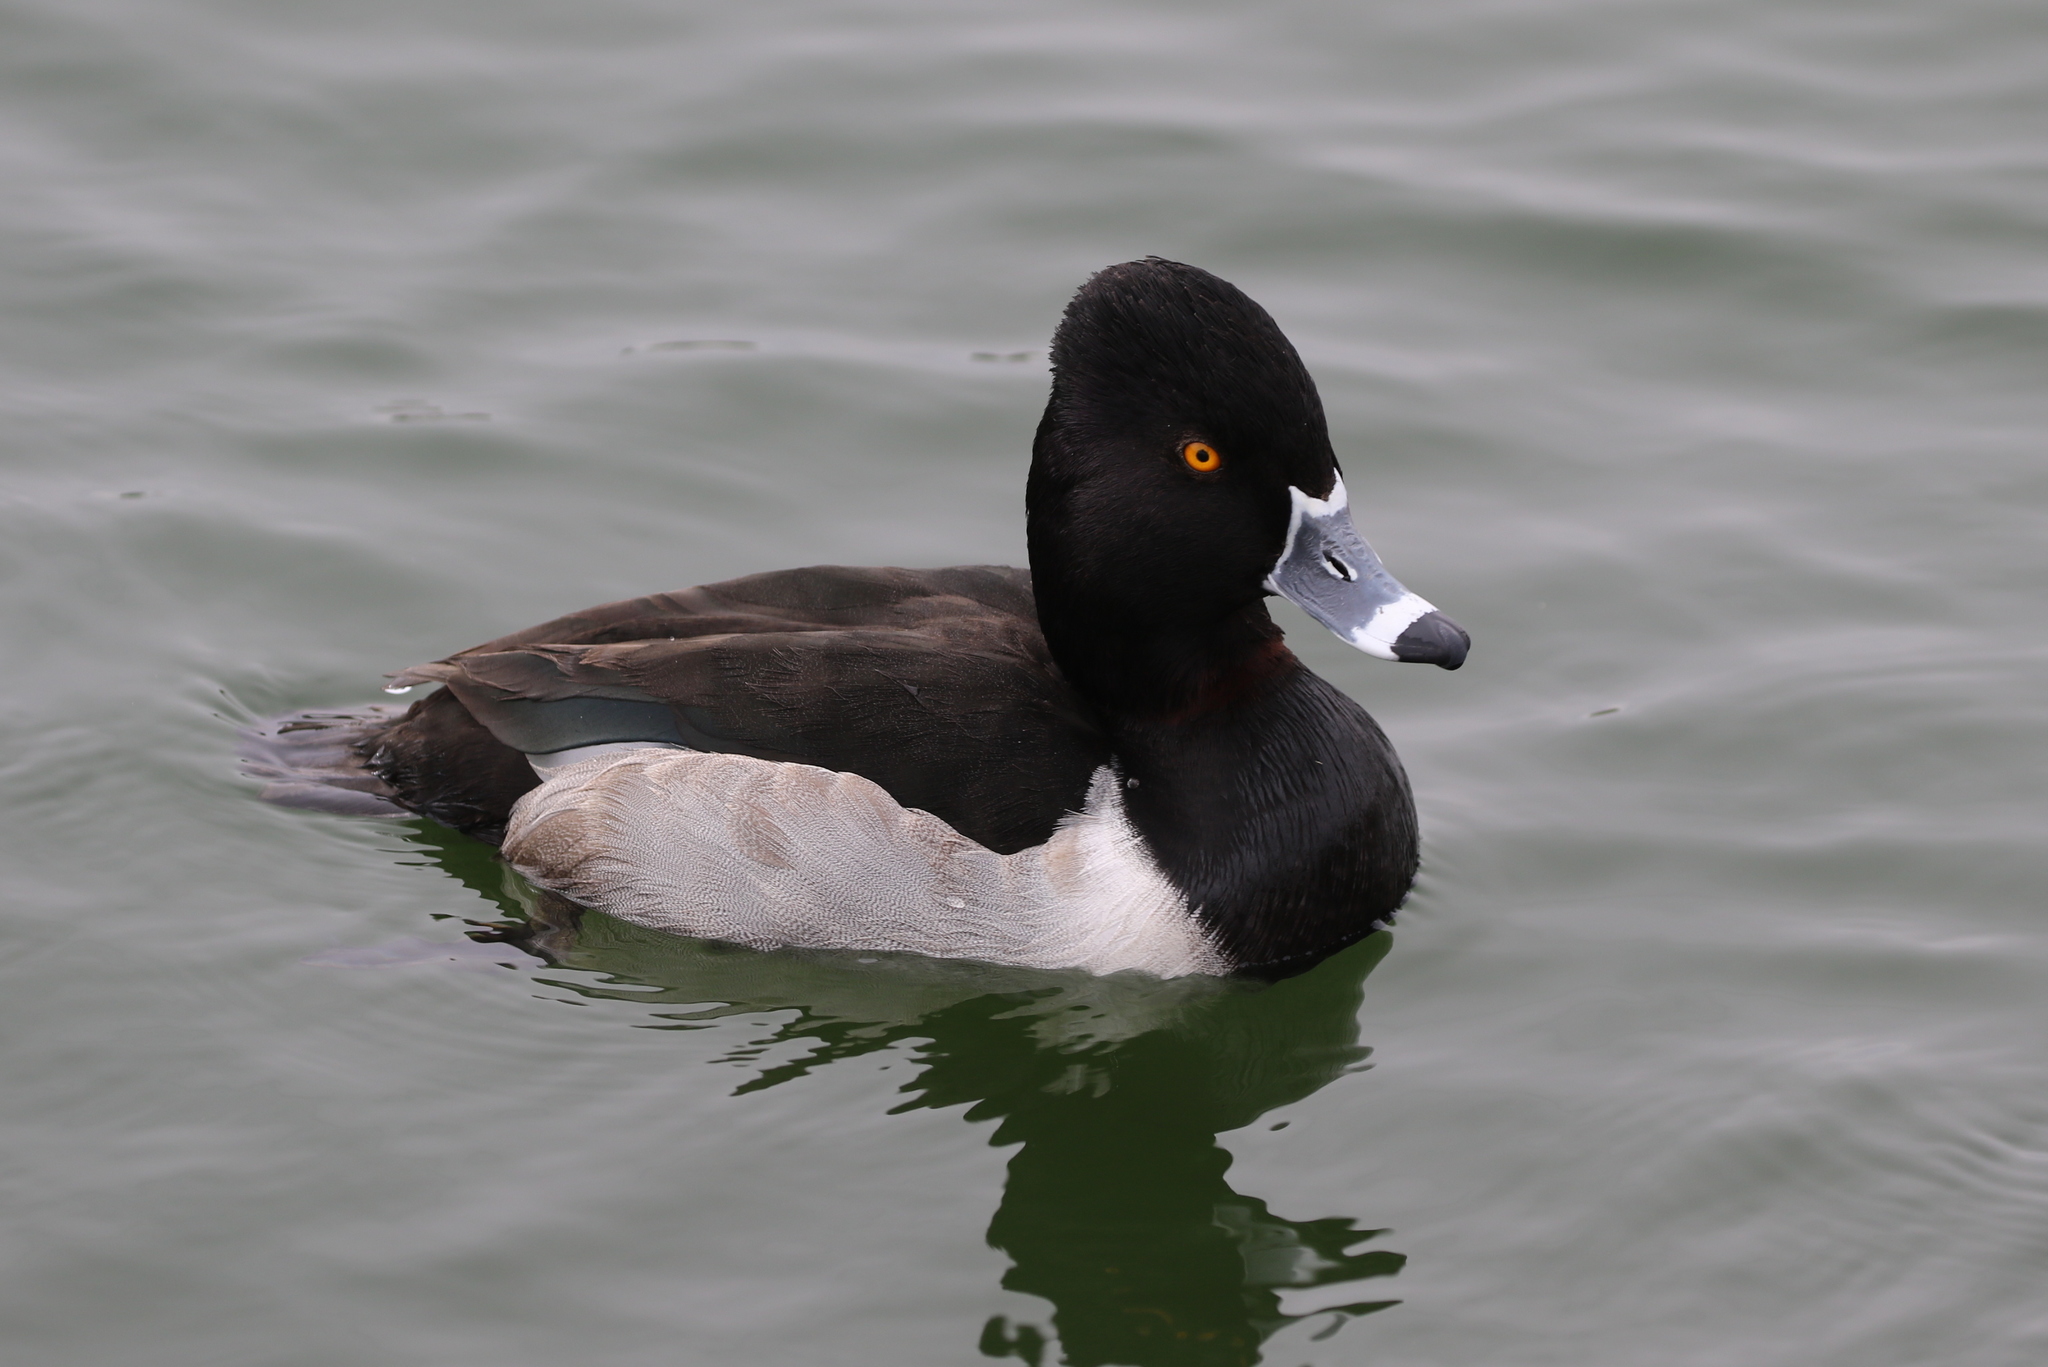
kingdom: Animalia
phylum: Chordata
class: Aves
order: Anseriformes
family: Anatidae
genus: Aythya
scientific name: Aythya collaris
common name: Ring-necked duck
